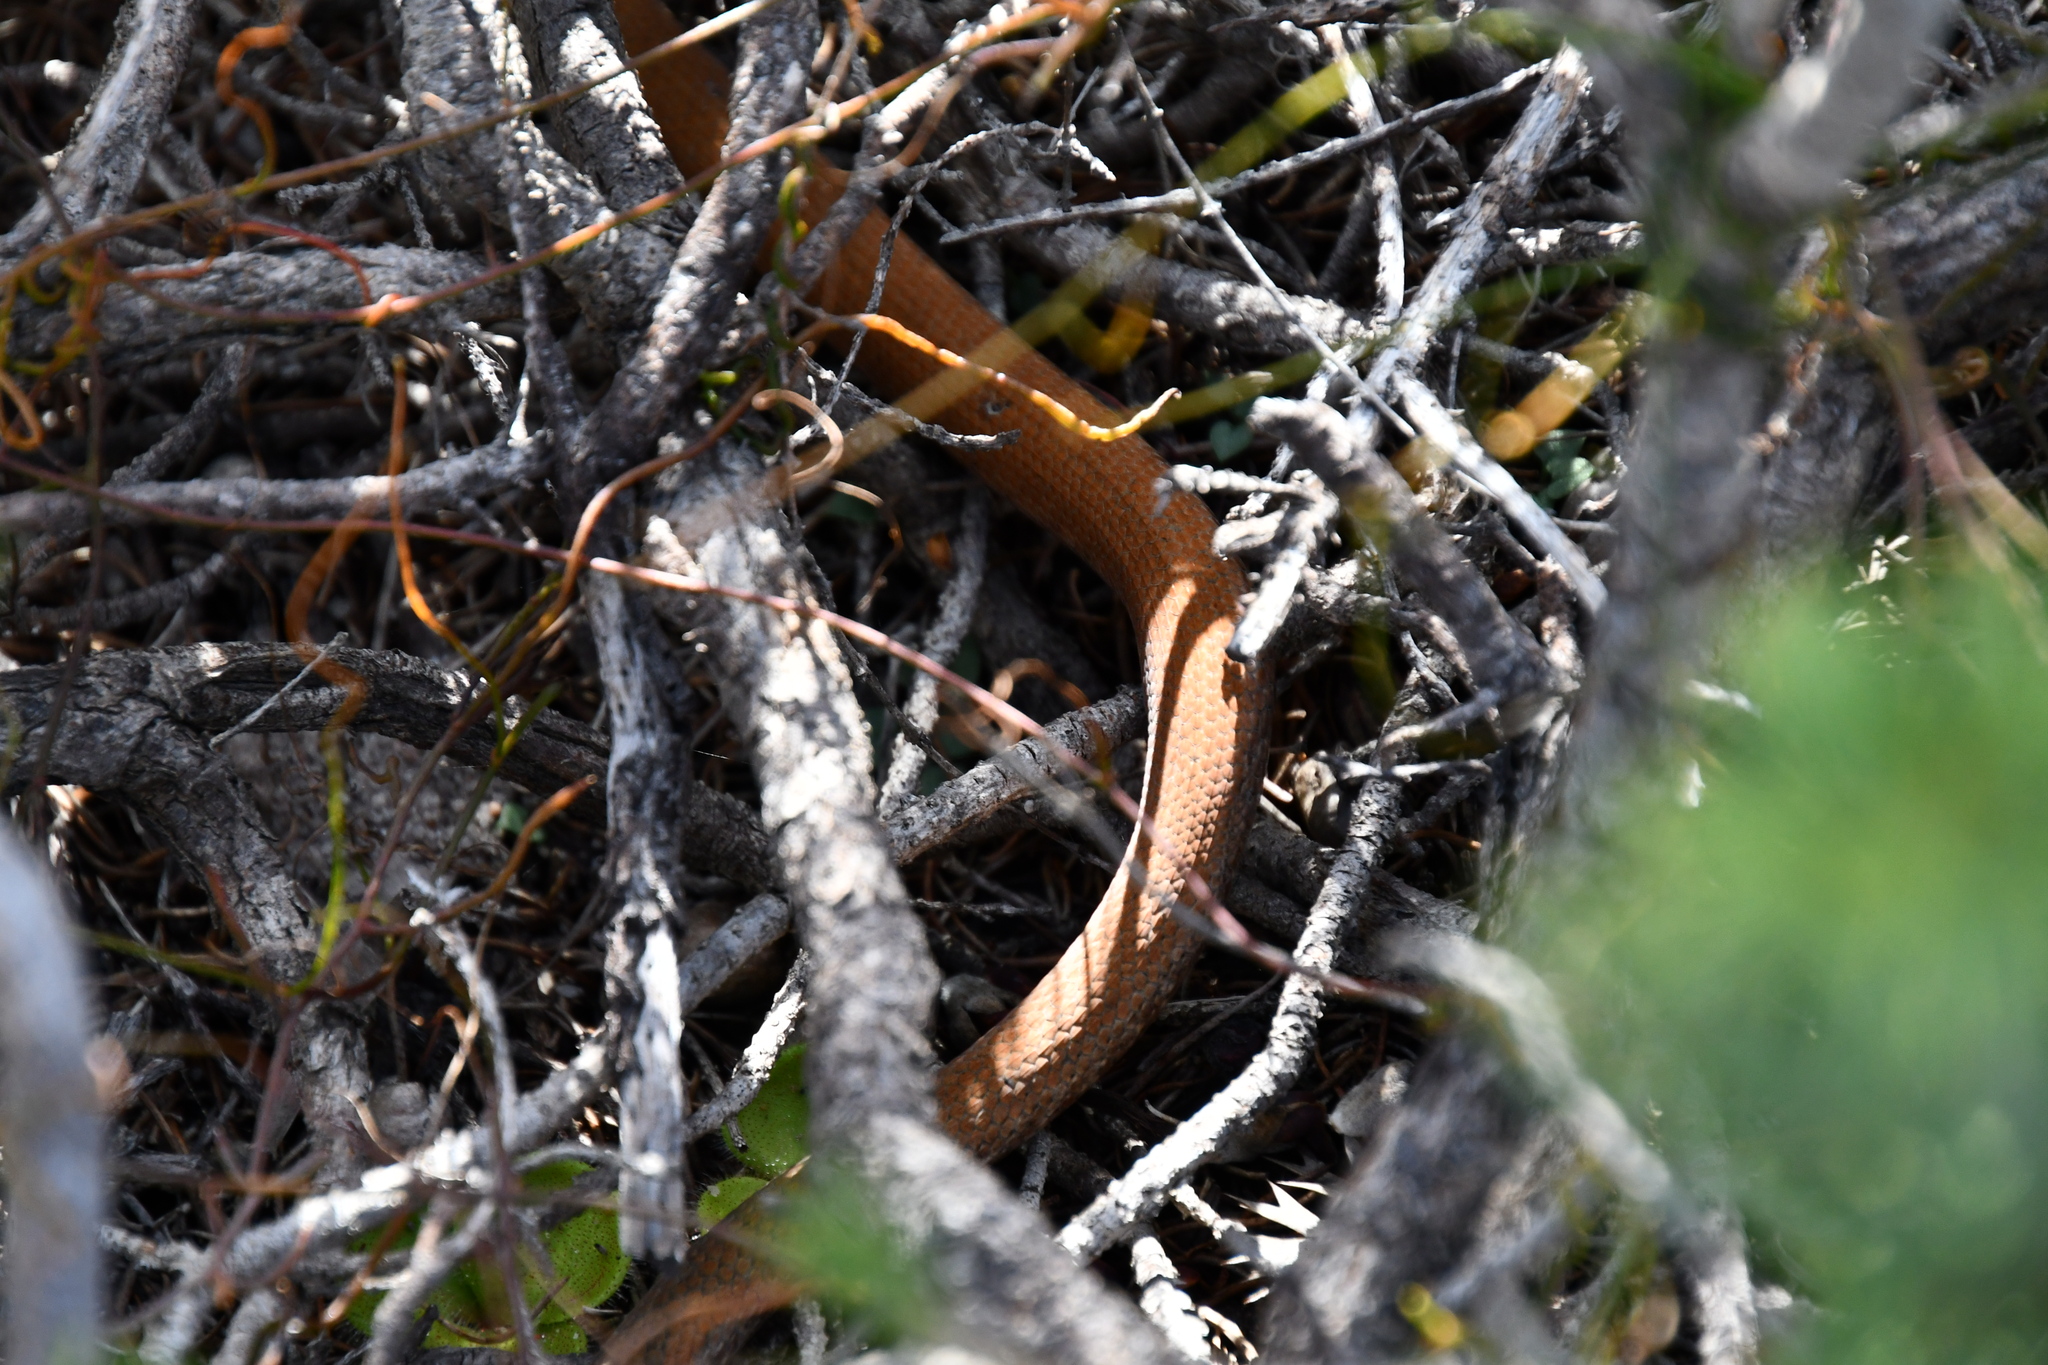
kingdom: Animalia
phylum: Chordata
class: Squamata
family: Pygopodidae
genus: Pygopus
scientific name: Pygopus lepidopodus
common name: Southern scaly-foot
